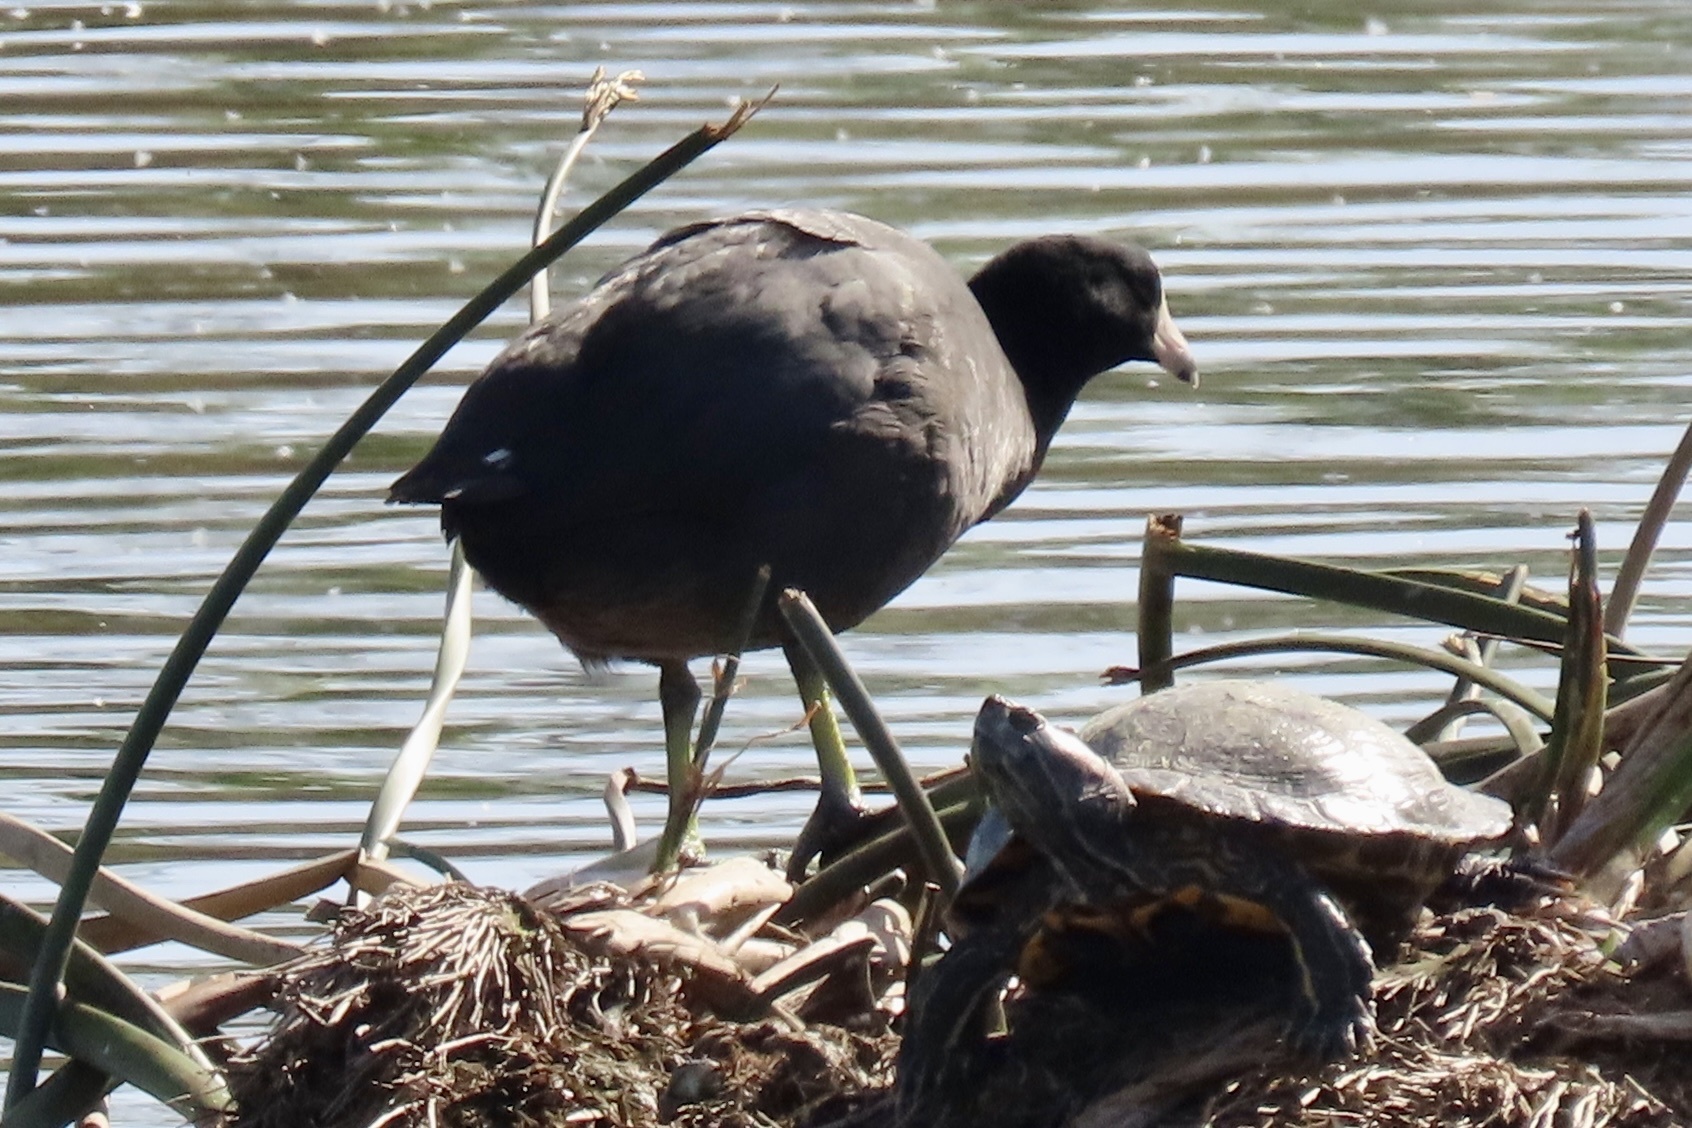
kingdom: Animalia
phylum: Chordata
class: Aves
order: Gruiformes
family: Rallidae
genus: Fulica
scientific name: Fulica americana
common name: American coot
